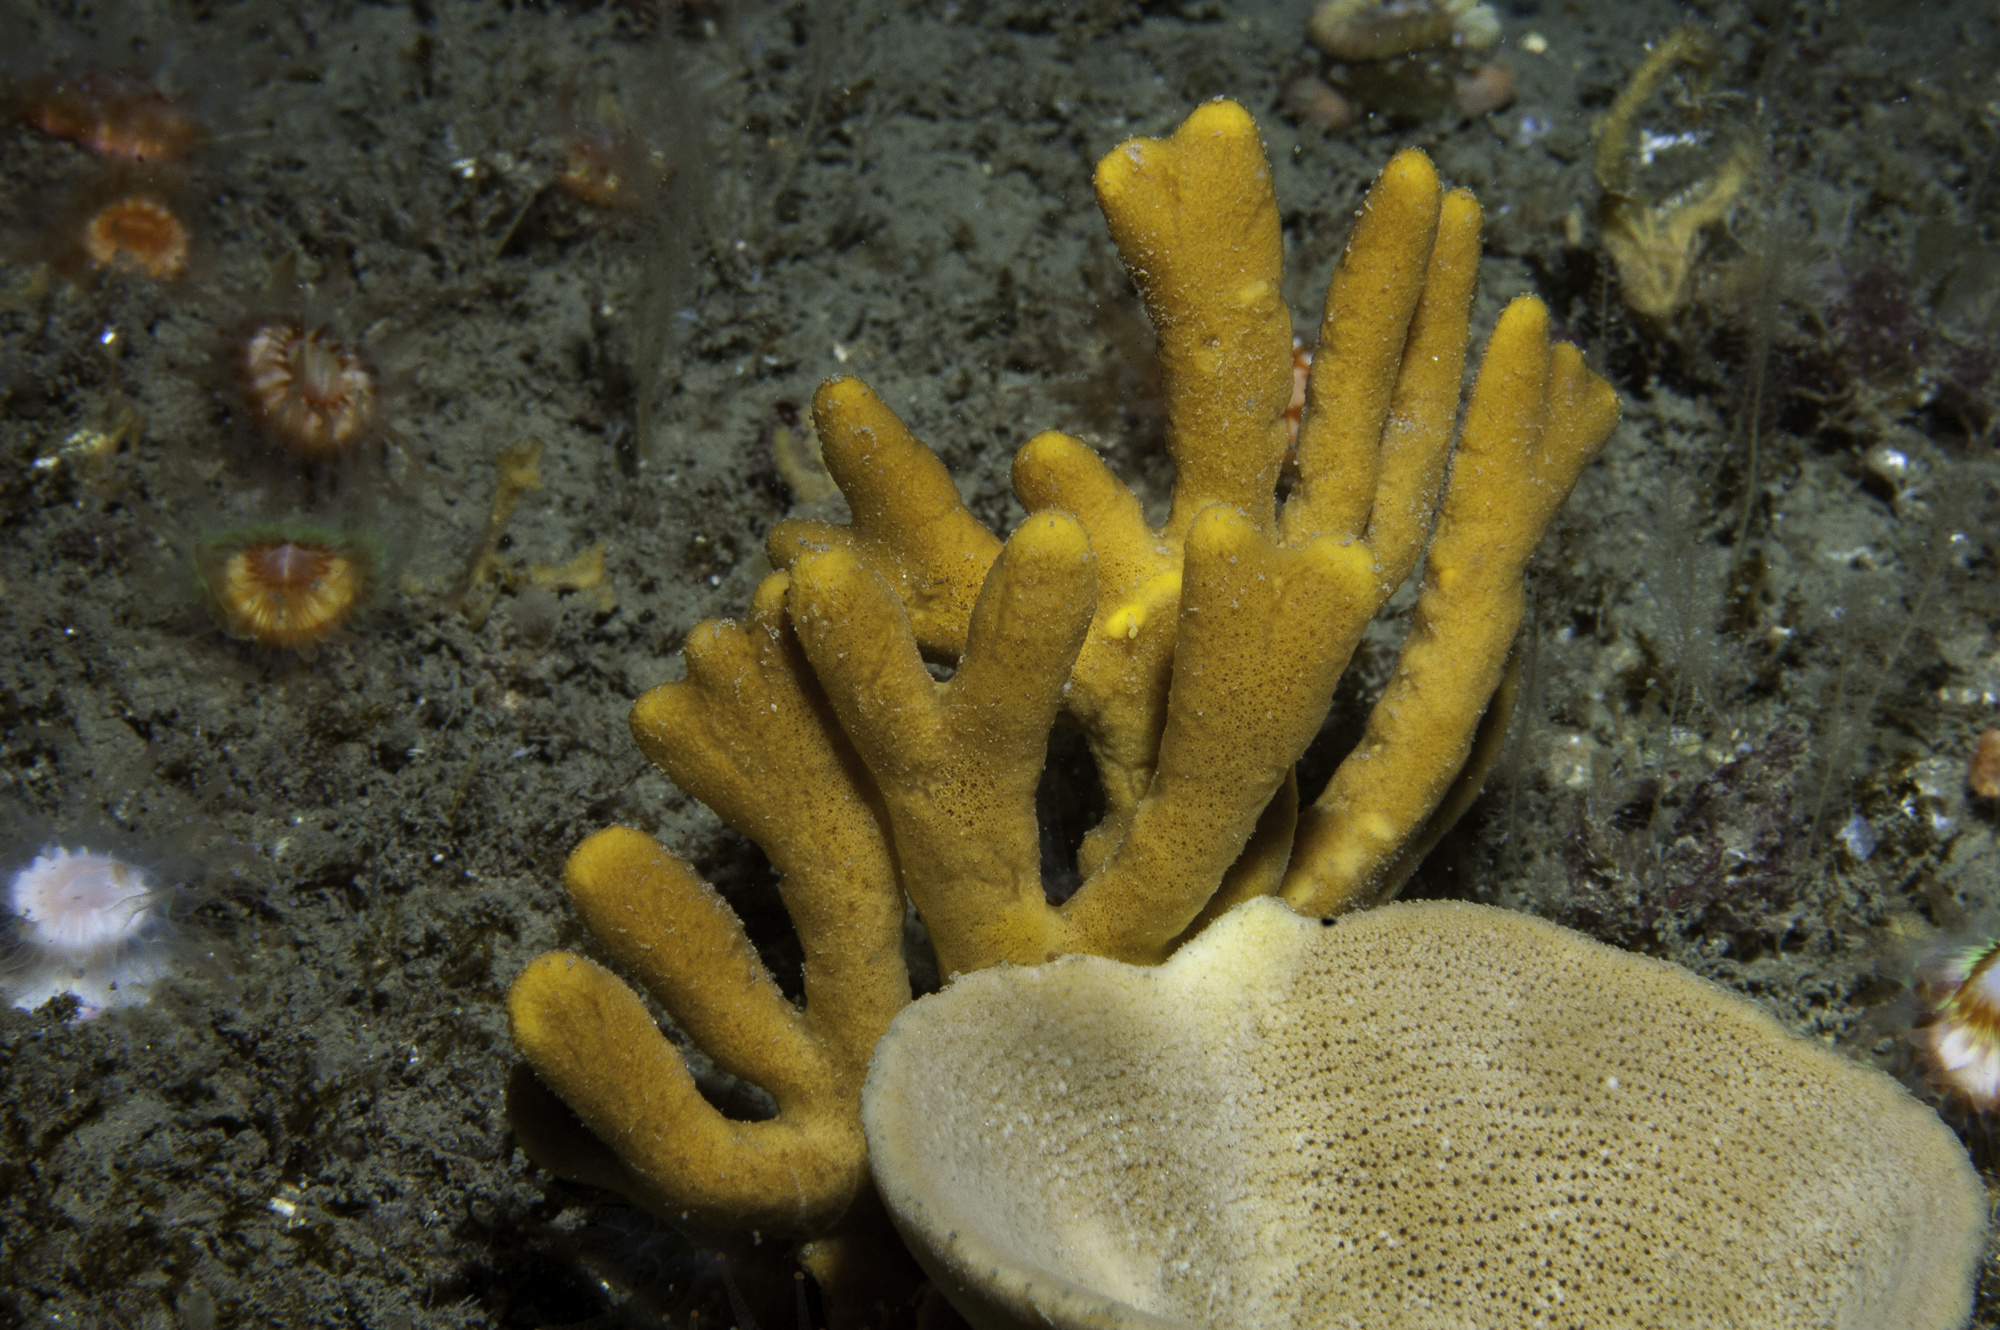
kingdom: Animalia
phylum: Porifera
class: Demospongiae
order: Axinellida
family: Axinellidae
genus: Axinella
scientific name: Axinella dissimilis
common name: Branching sponge
